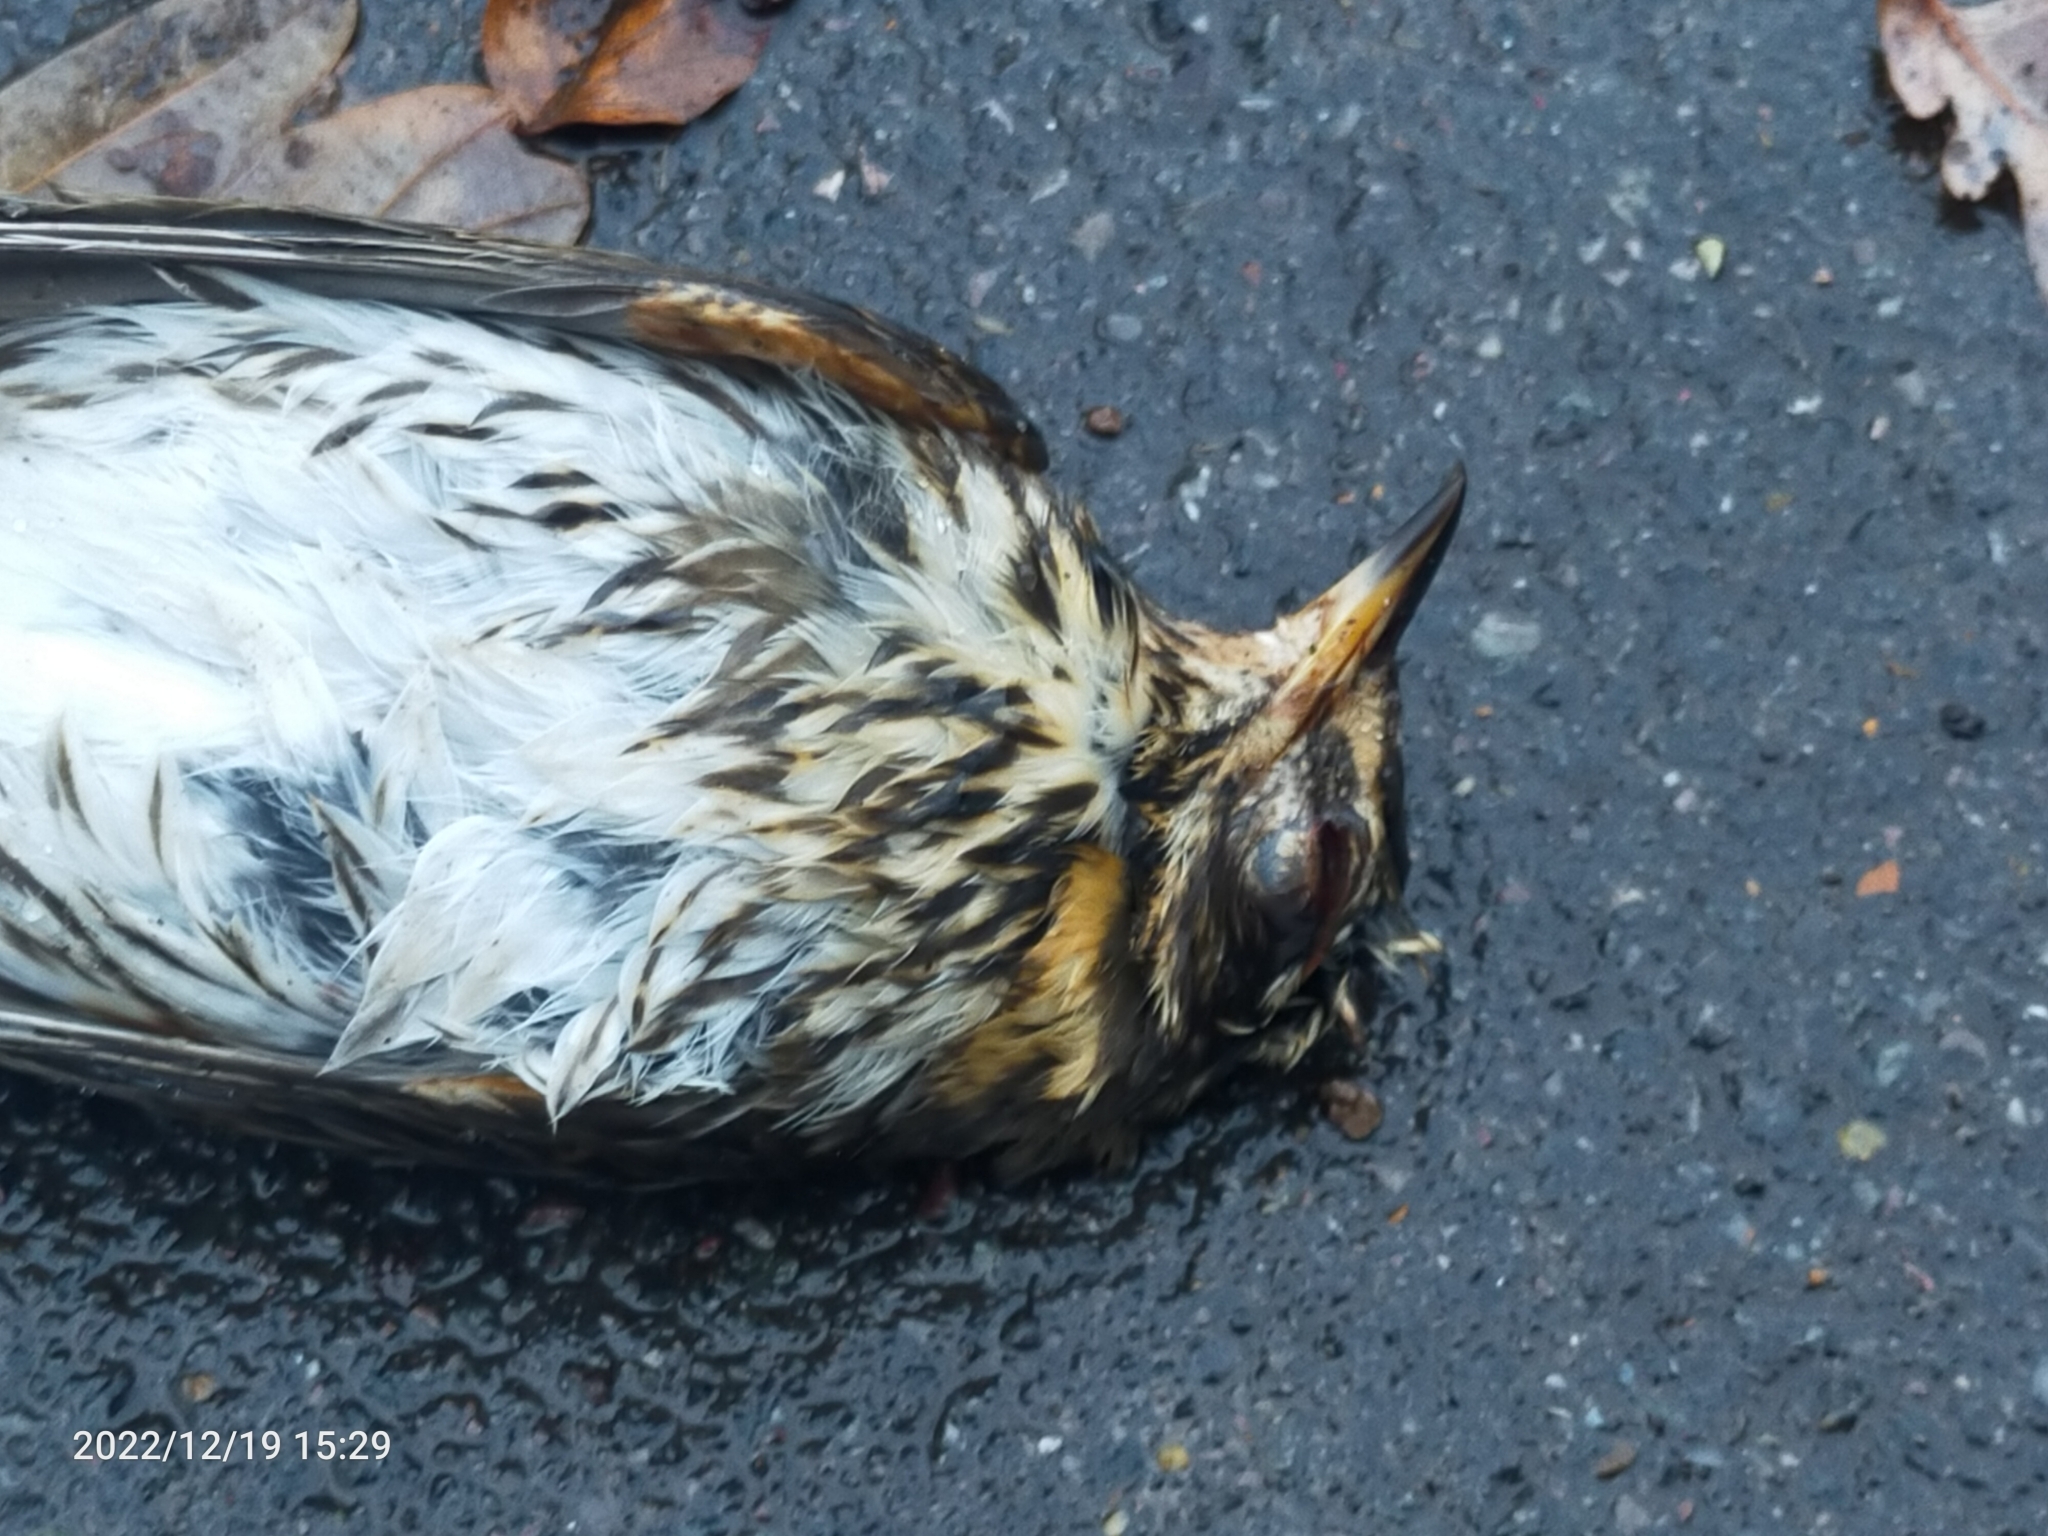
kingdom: Animalia
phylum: Chordata
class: Aves
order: Passeriformes
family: Turdidae
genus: Turdus
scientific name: Turdus iliacus
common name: Redwing
